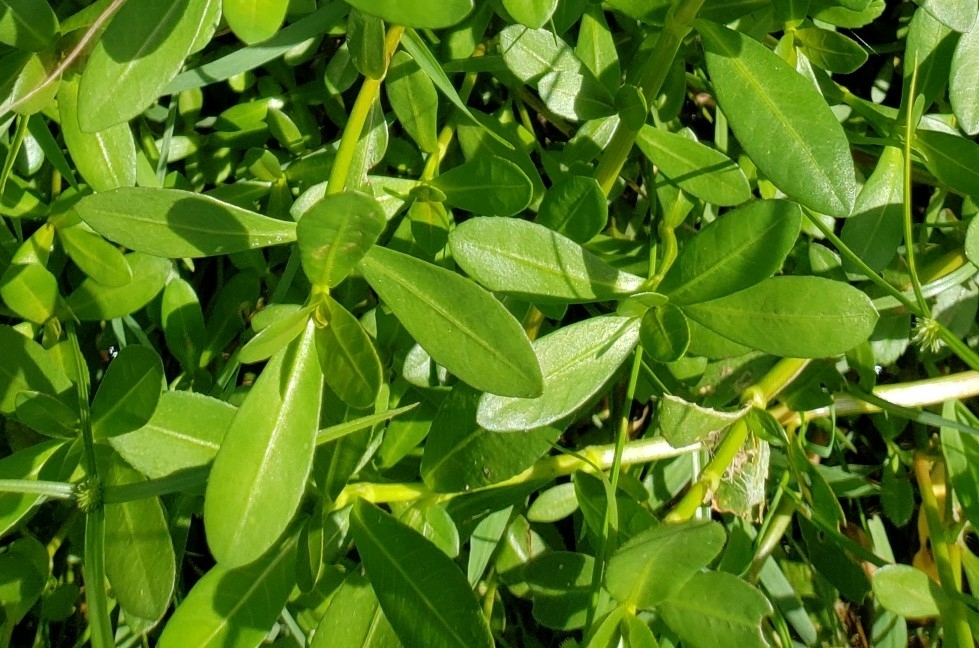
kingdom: Plantae
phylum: Tracheophyta
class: Magnoliopsida
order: Caryophyllales
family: Amaranthaceae
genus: Alternanthera
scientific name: Alternanthera philoxeroides
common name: Alligatorweed
